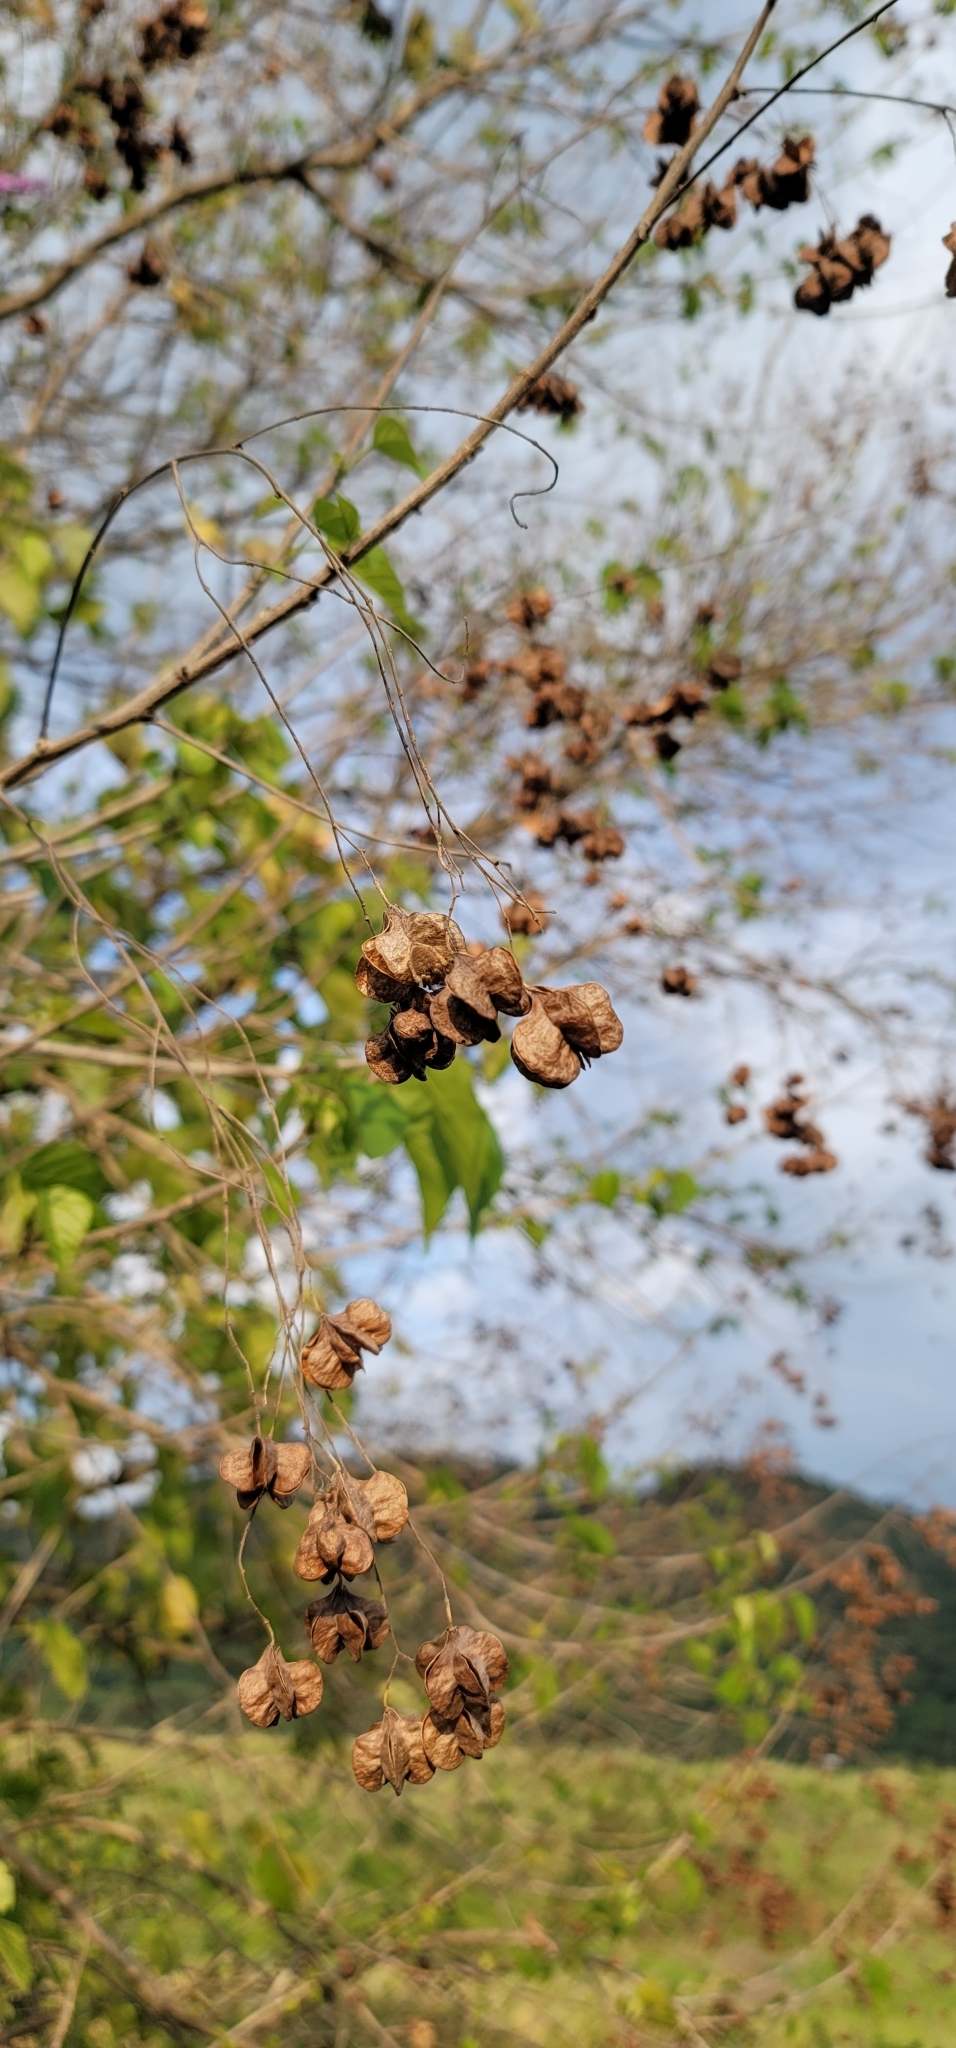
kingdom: Plantae
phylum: Tracheophyta
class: Magnoliopsida
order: Malvales
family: Malvaceae
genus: Kleinhovia
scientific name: Kleinhovia hospita
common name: Guest-tree
